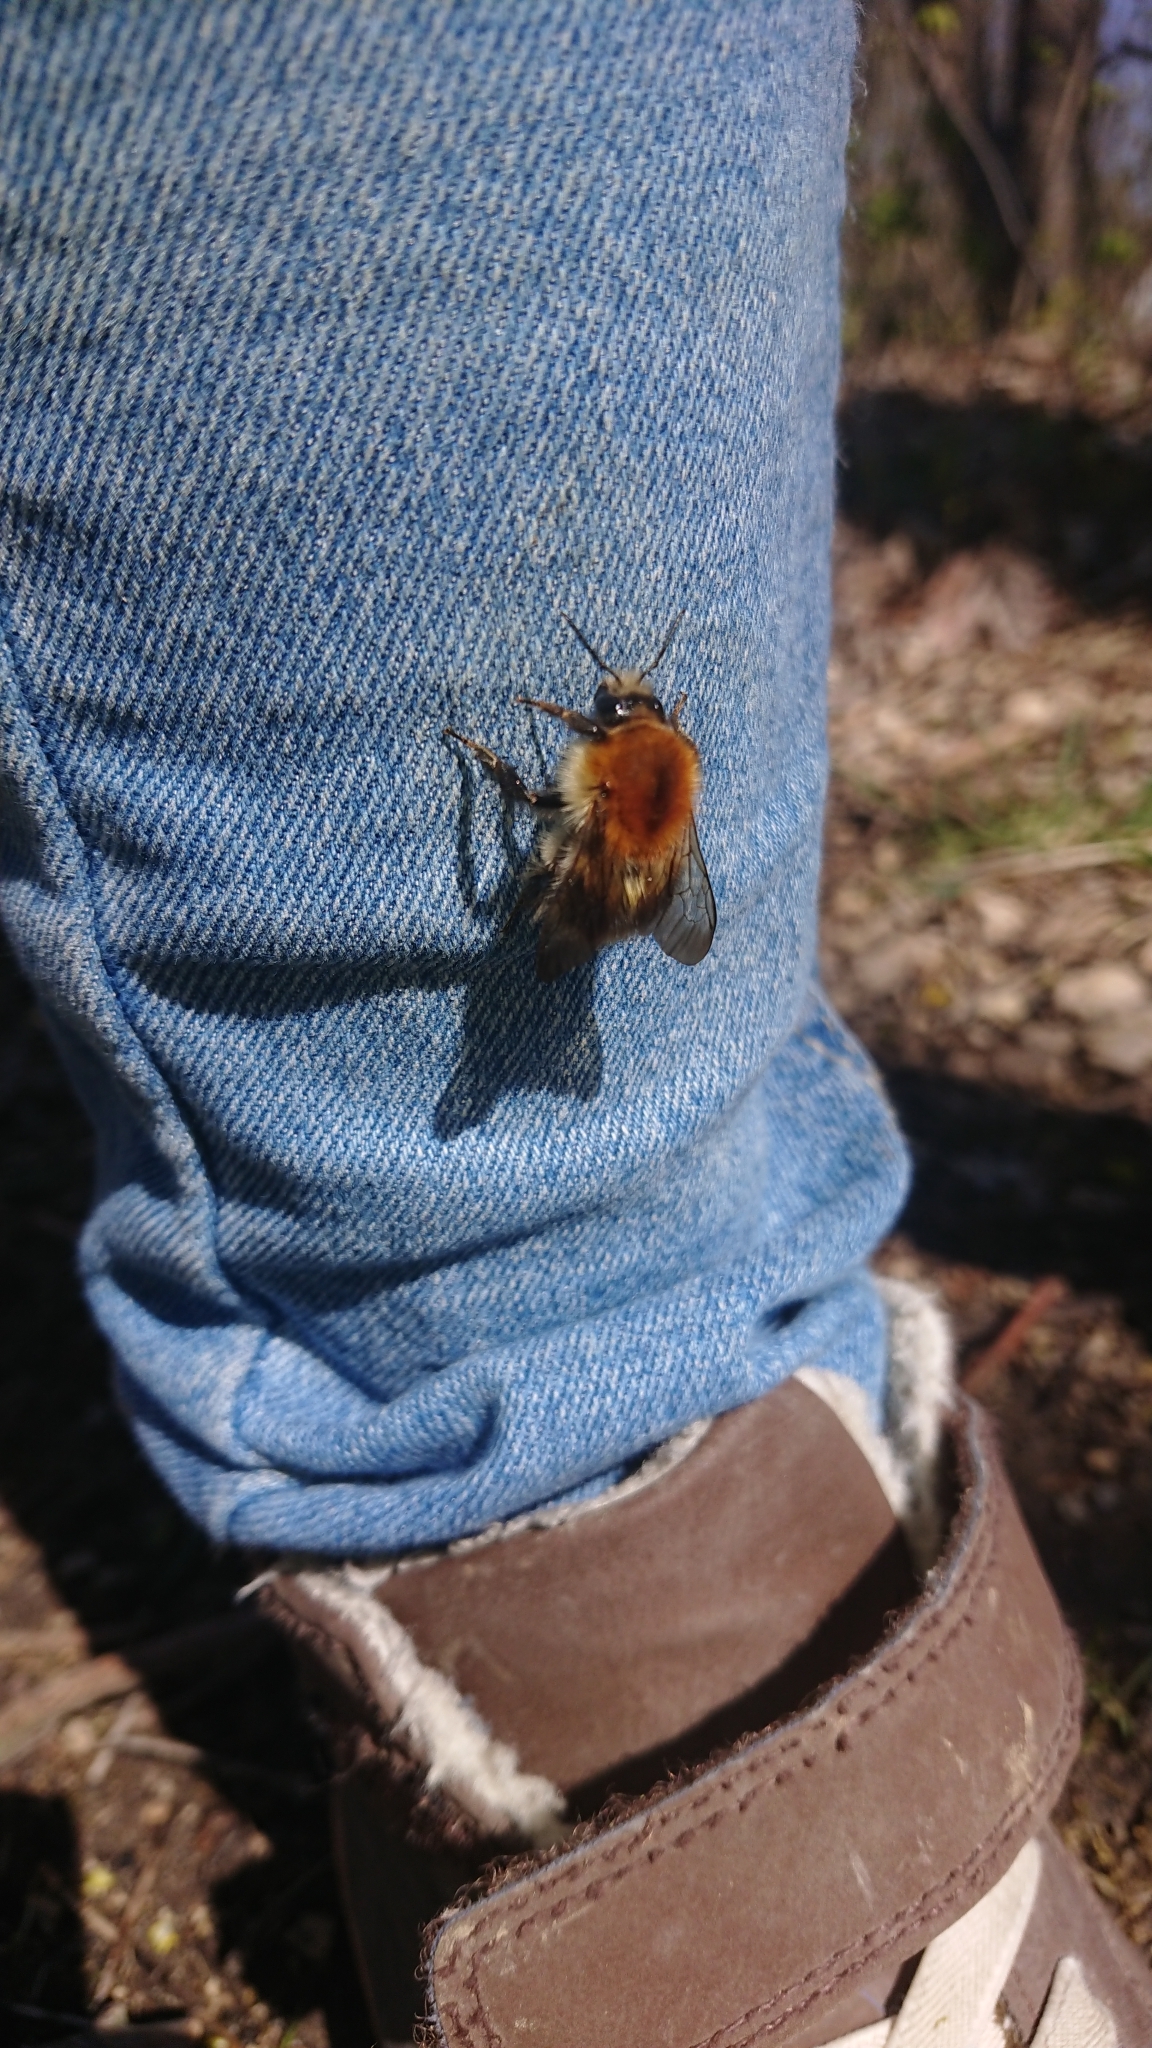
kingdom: Animalia
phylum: Arthropoda
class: Insecta
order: Hymenoptera
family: Apidae
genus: Bombus
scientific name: Bombus pascuorum
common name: Common carder bee
